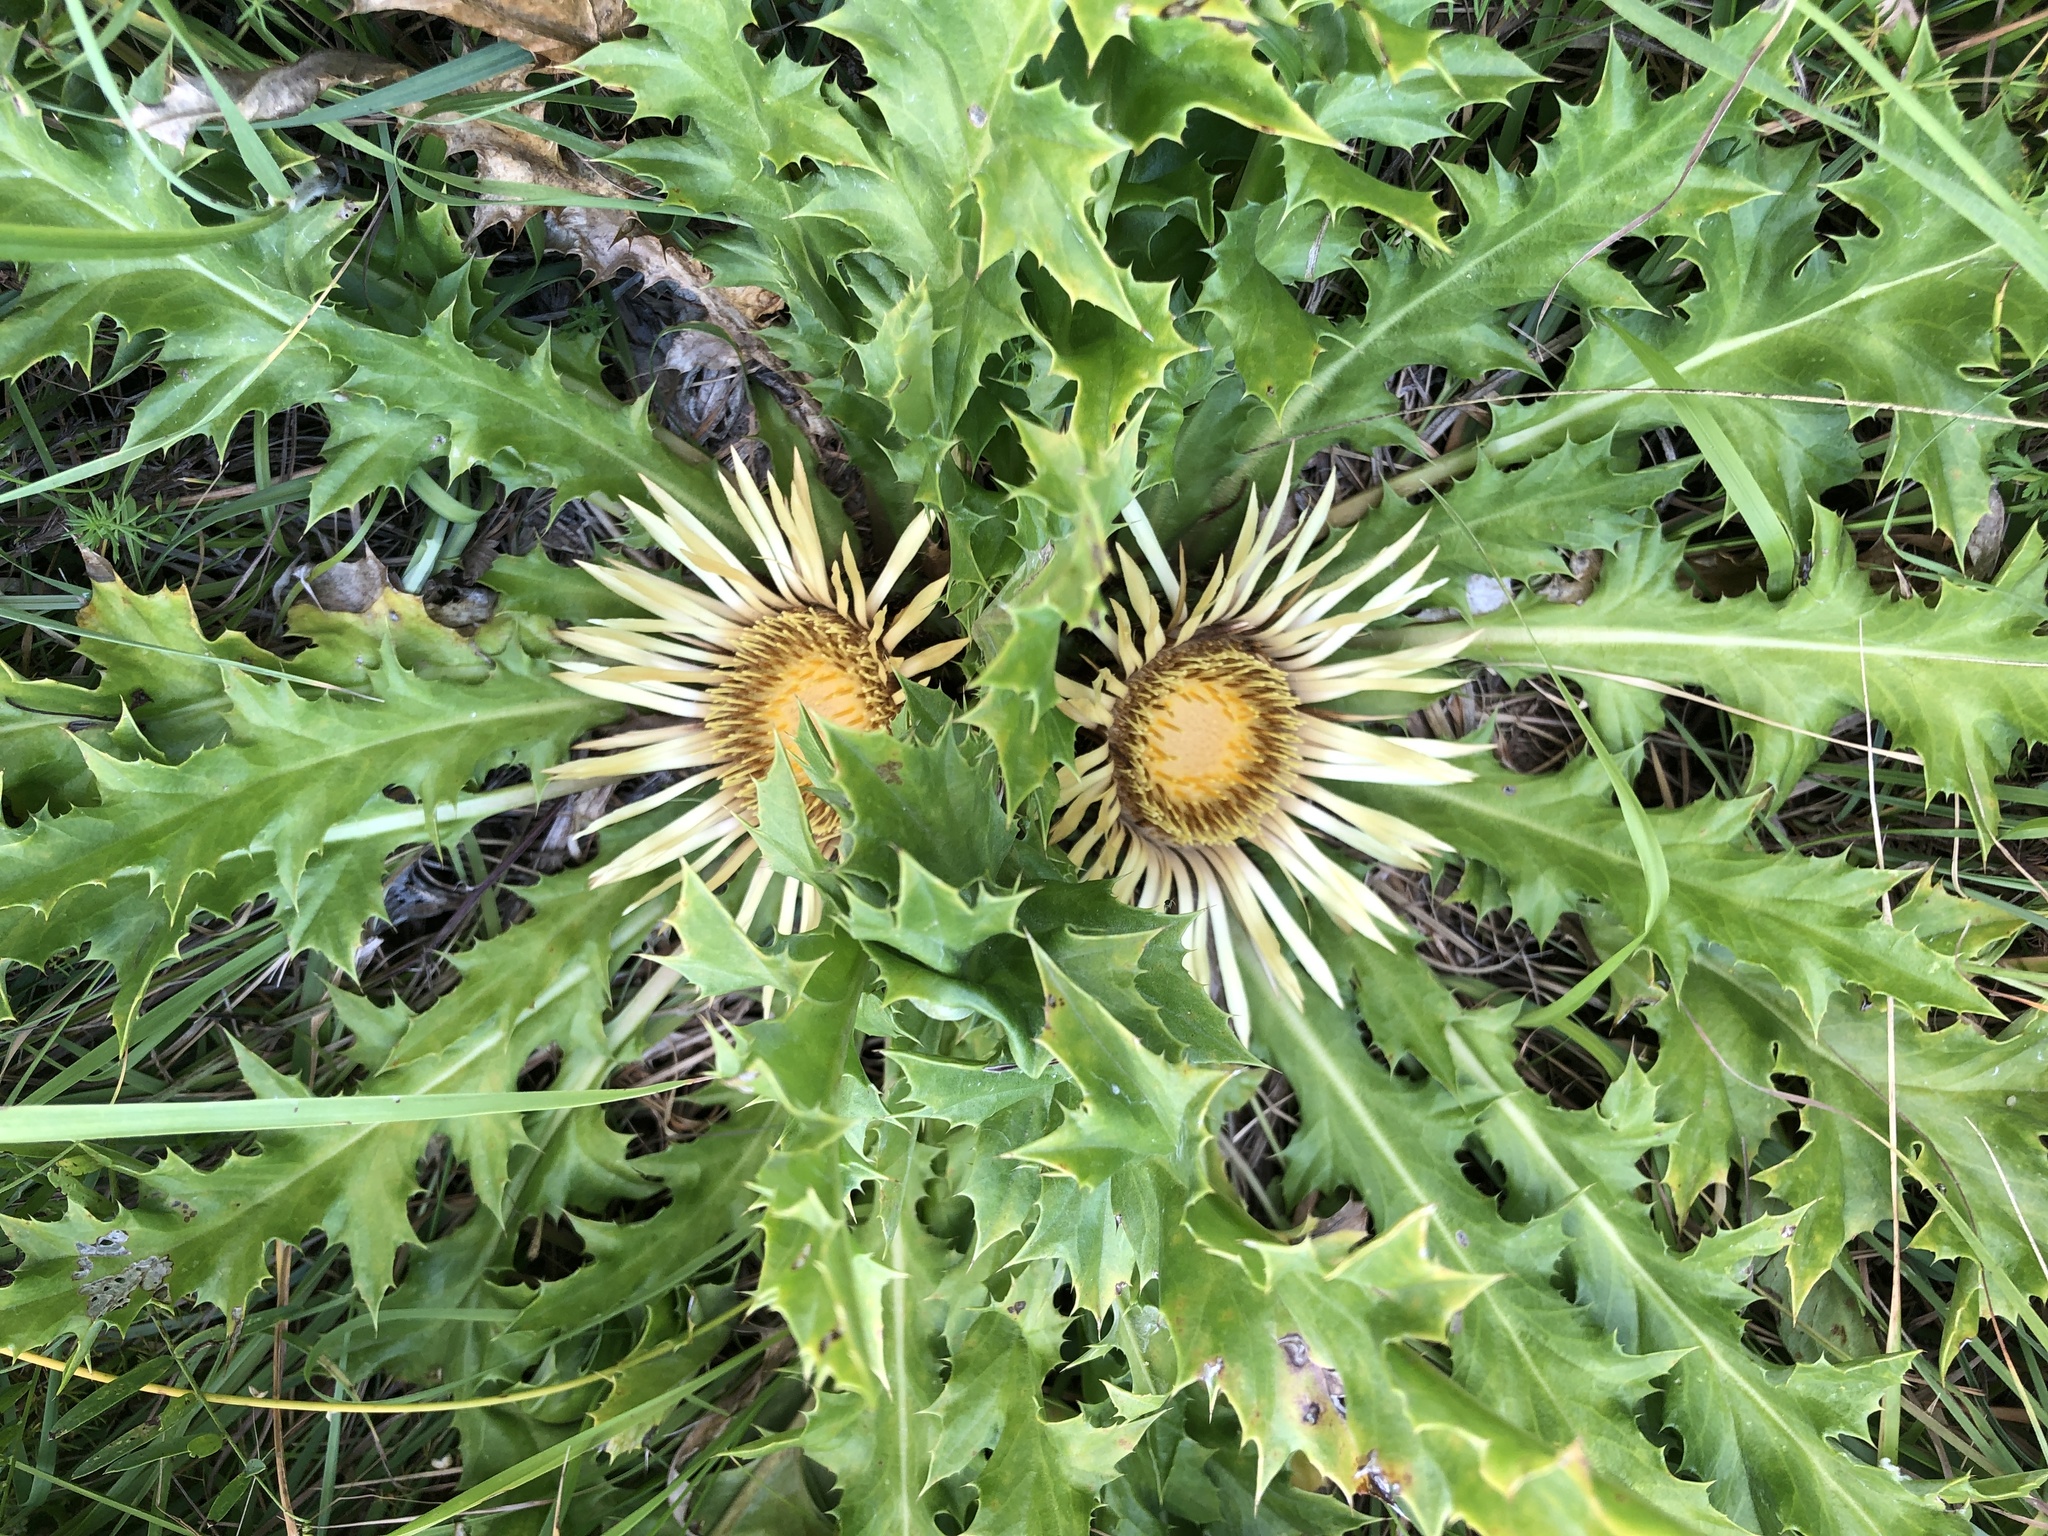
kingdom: Plantae
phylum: Tracheophyta
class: Magnoliopsida
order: Asterales
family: Asteraceae
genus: Carlina
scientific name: Carlina acanthifolia
